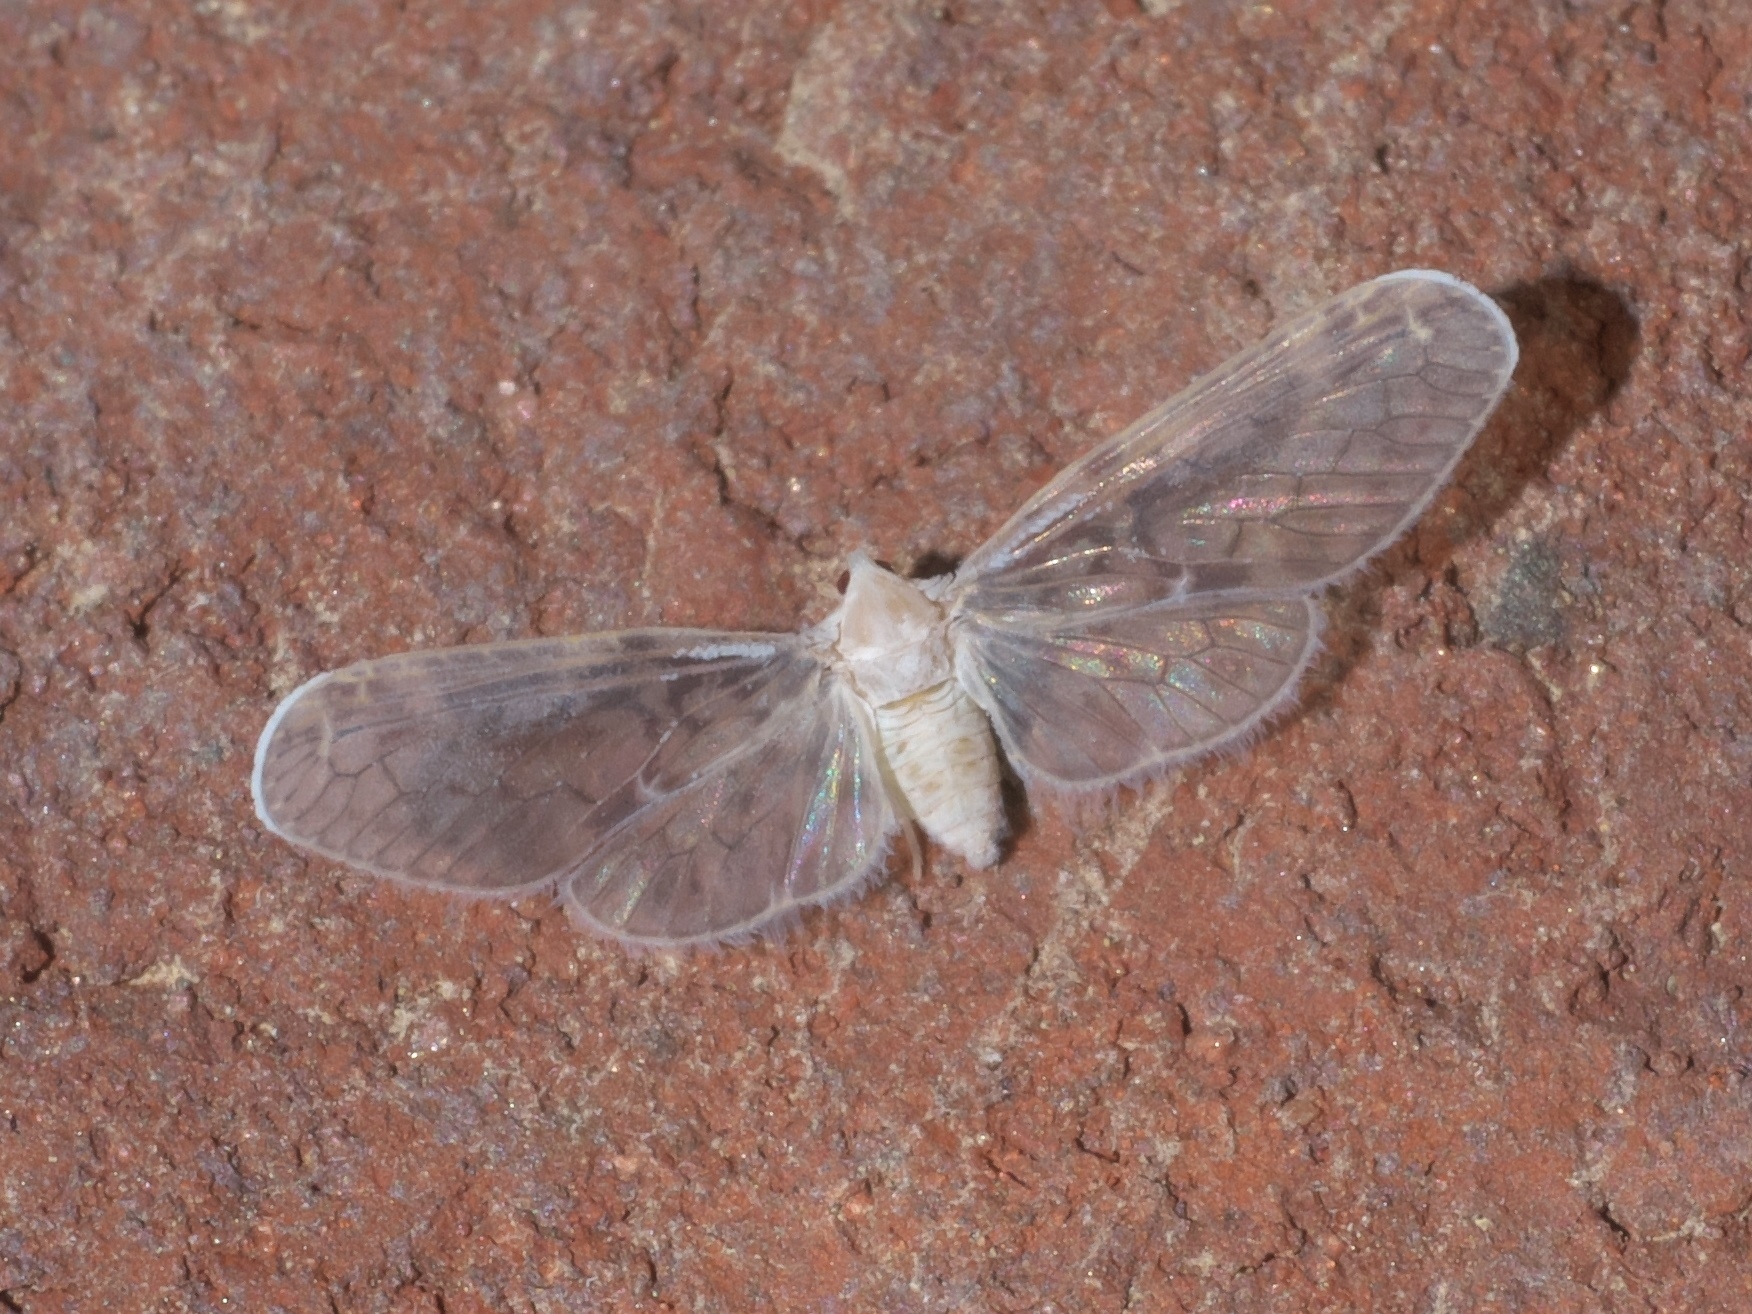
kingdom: Animalia
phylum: Arthropoda
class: Insecta
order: Hemiptera
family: Derbidae
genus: Paramysidia
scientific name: Paramysidia mississippiensis
